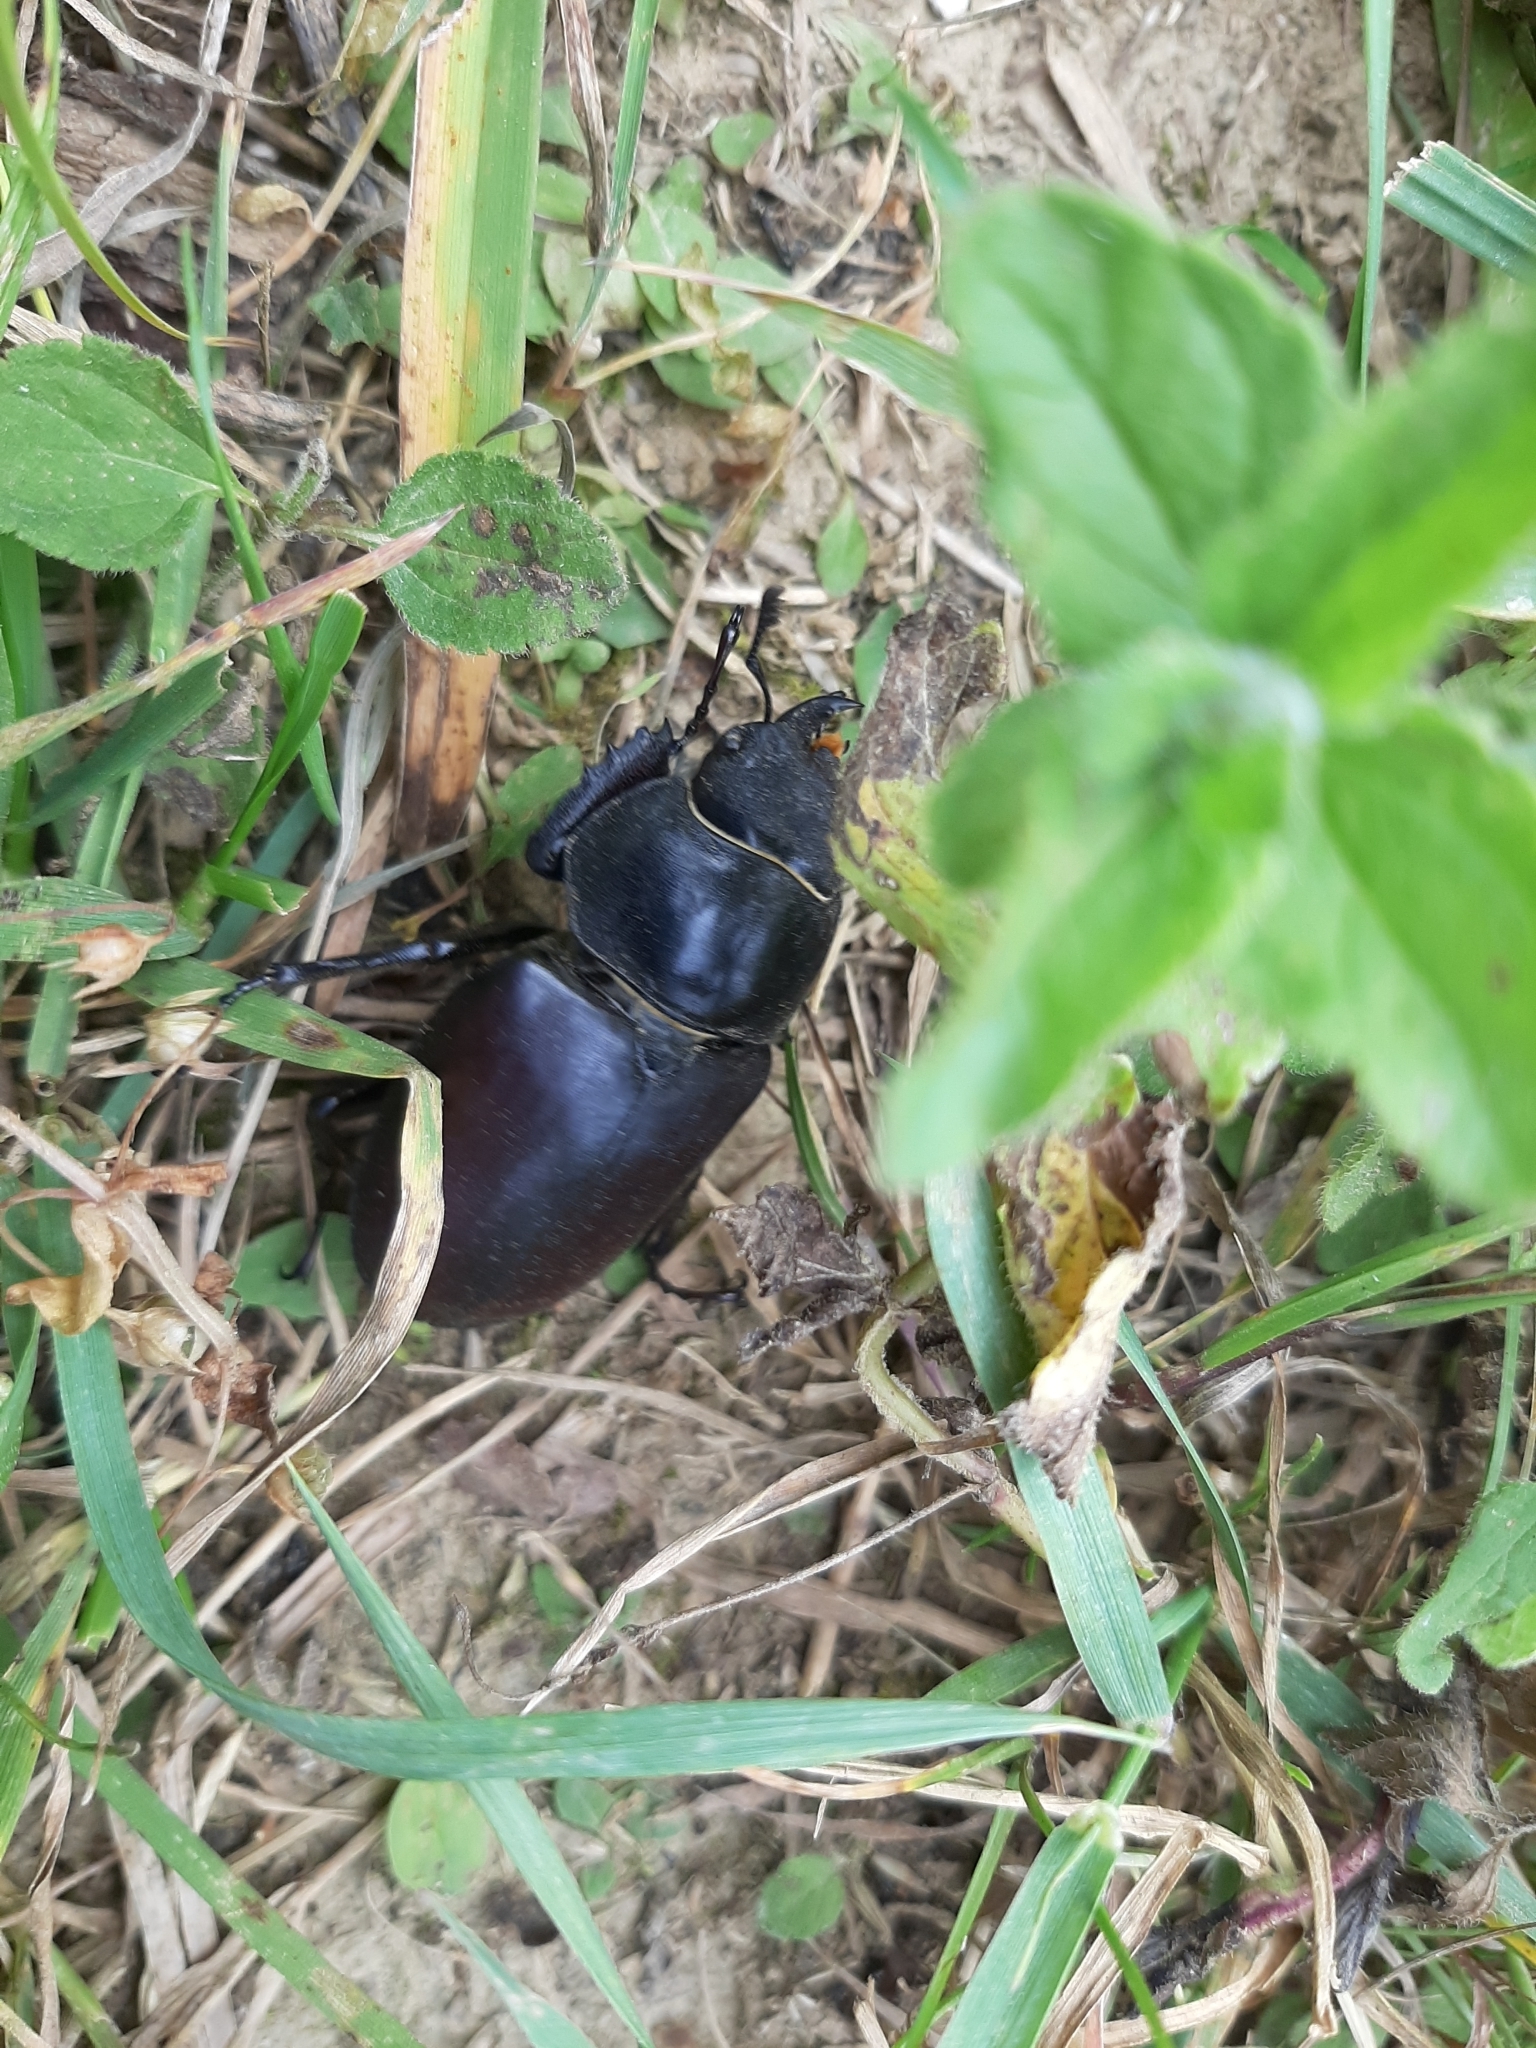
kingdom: Animalia
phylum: Arthropoda
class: Insecta
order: Coleoptera
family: Lucanidae
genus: Lucanus
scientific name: Lucanus cervus
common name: Stag beetle
